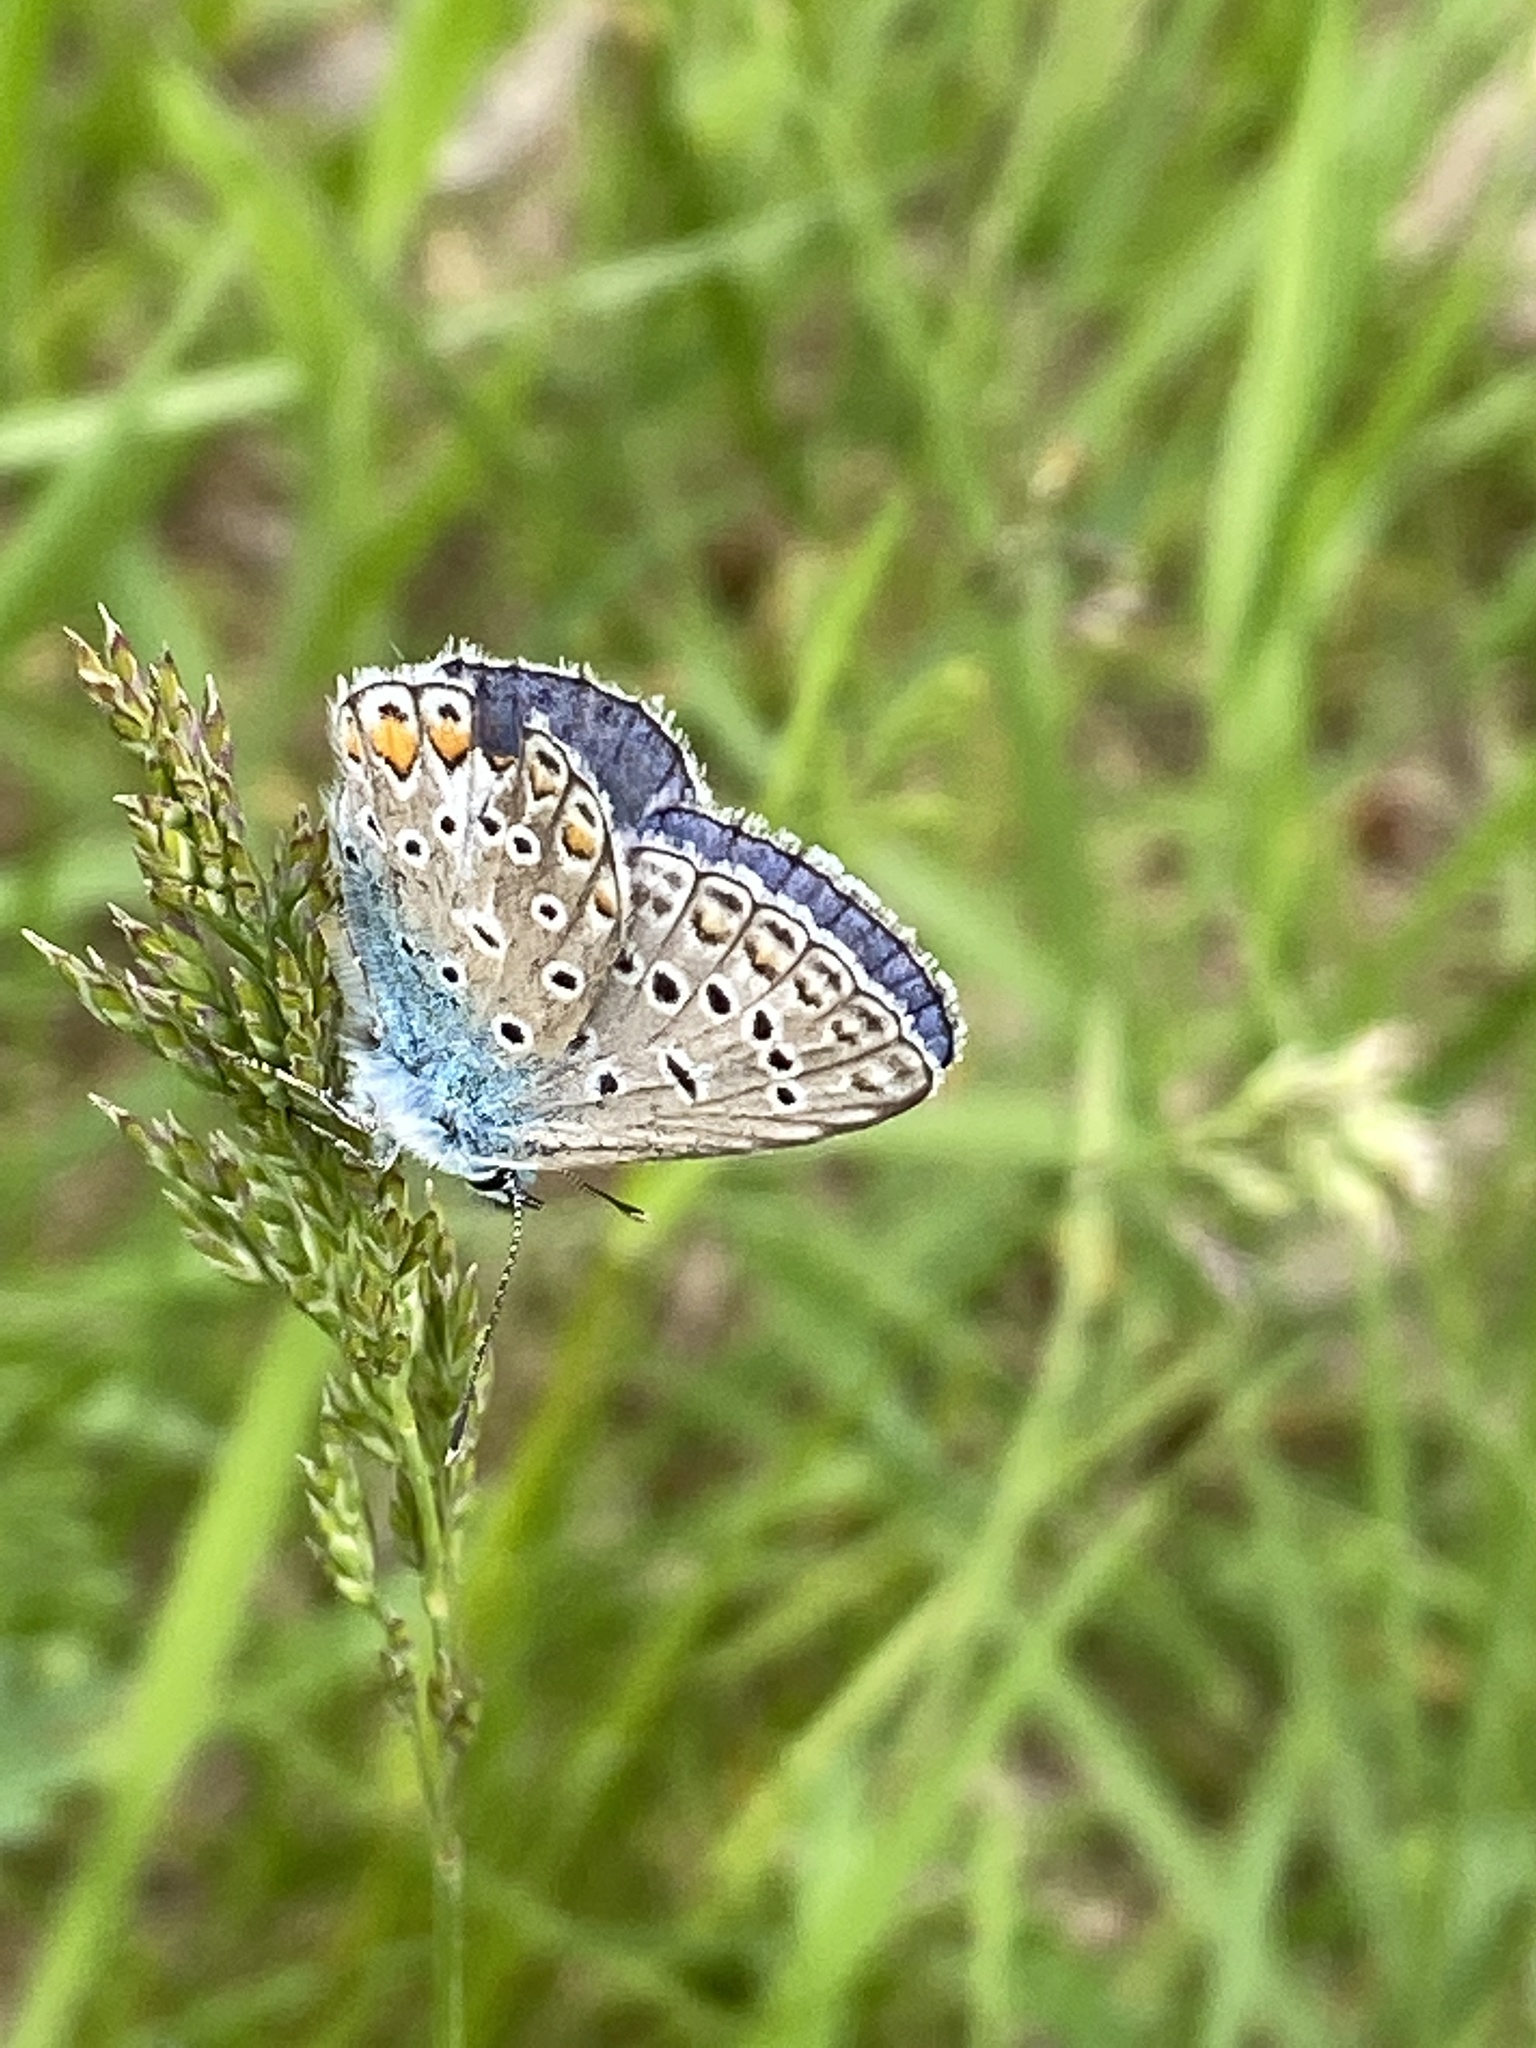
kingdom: Animalia
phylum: Arthropoda
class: Insecta
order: Lepidoptera
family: Lycaenidae
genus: Polyommatus
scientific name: Polyommatus icarus
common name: Common blue
